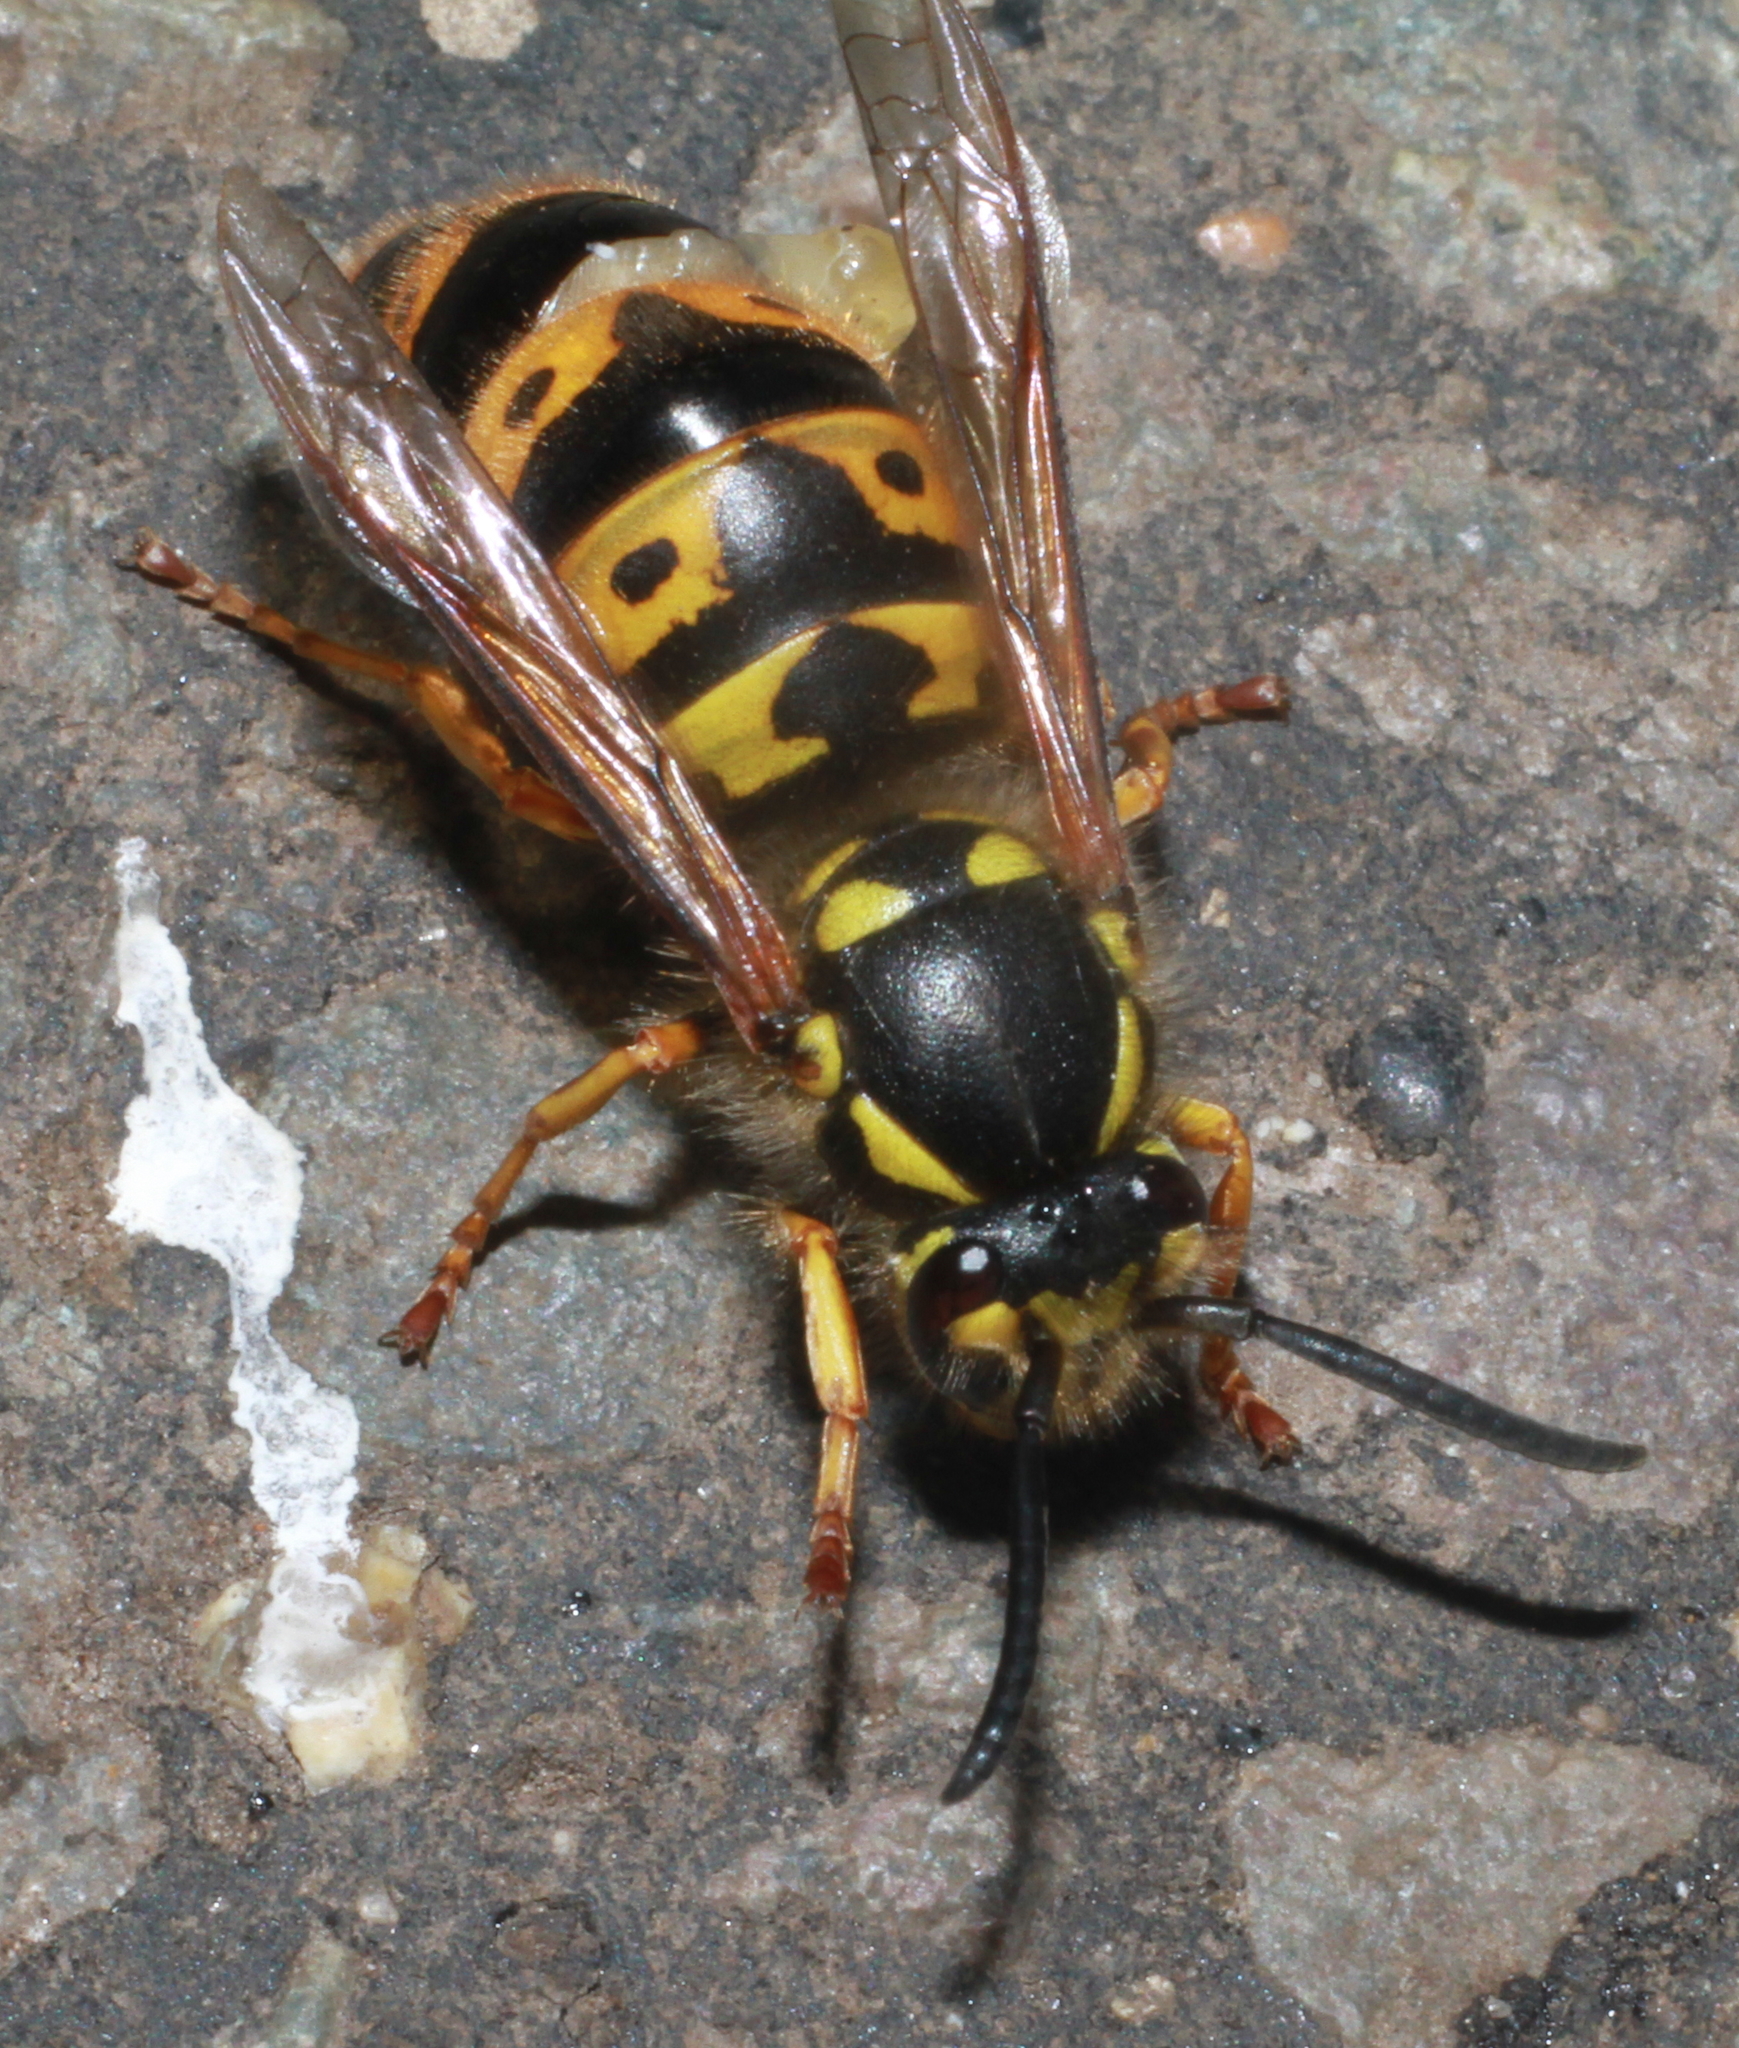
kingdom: Animalia
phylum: Arthropoda
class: Insecta
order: Hymenoptera
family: Vespidae
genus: Vespula
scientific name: Vespula germanica
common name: German wasp
